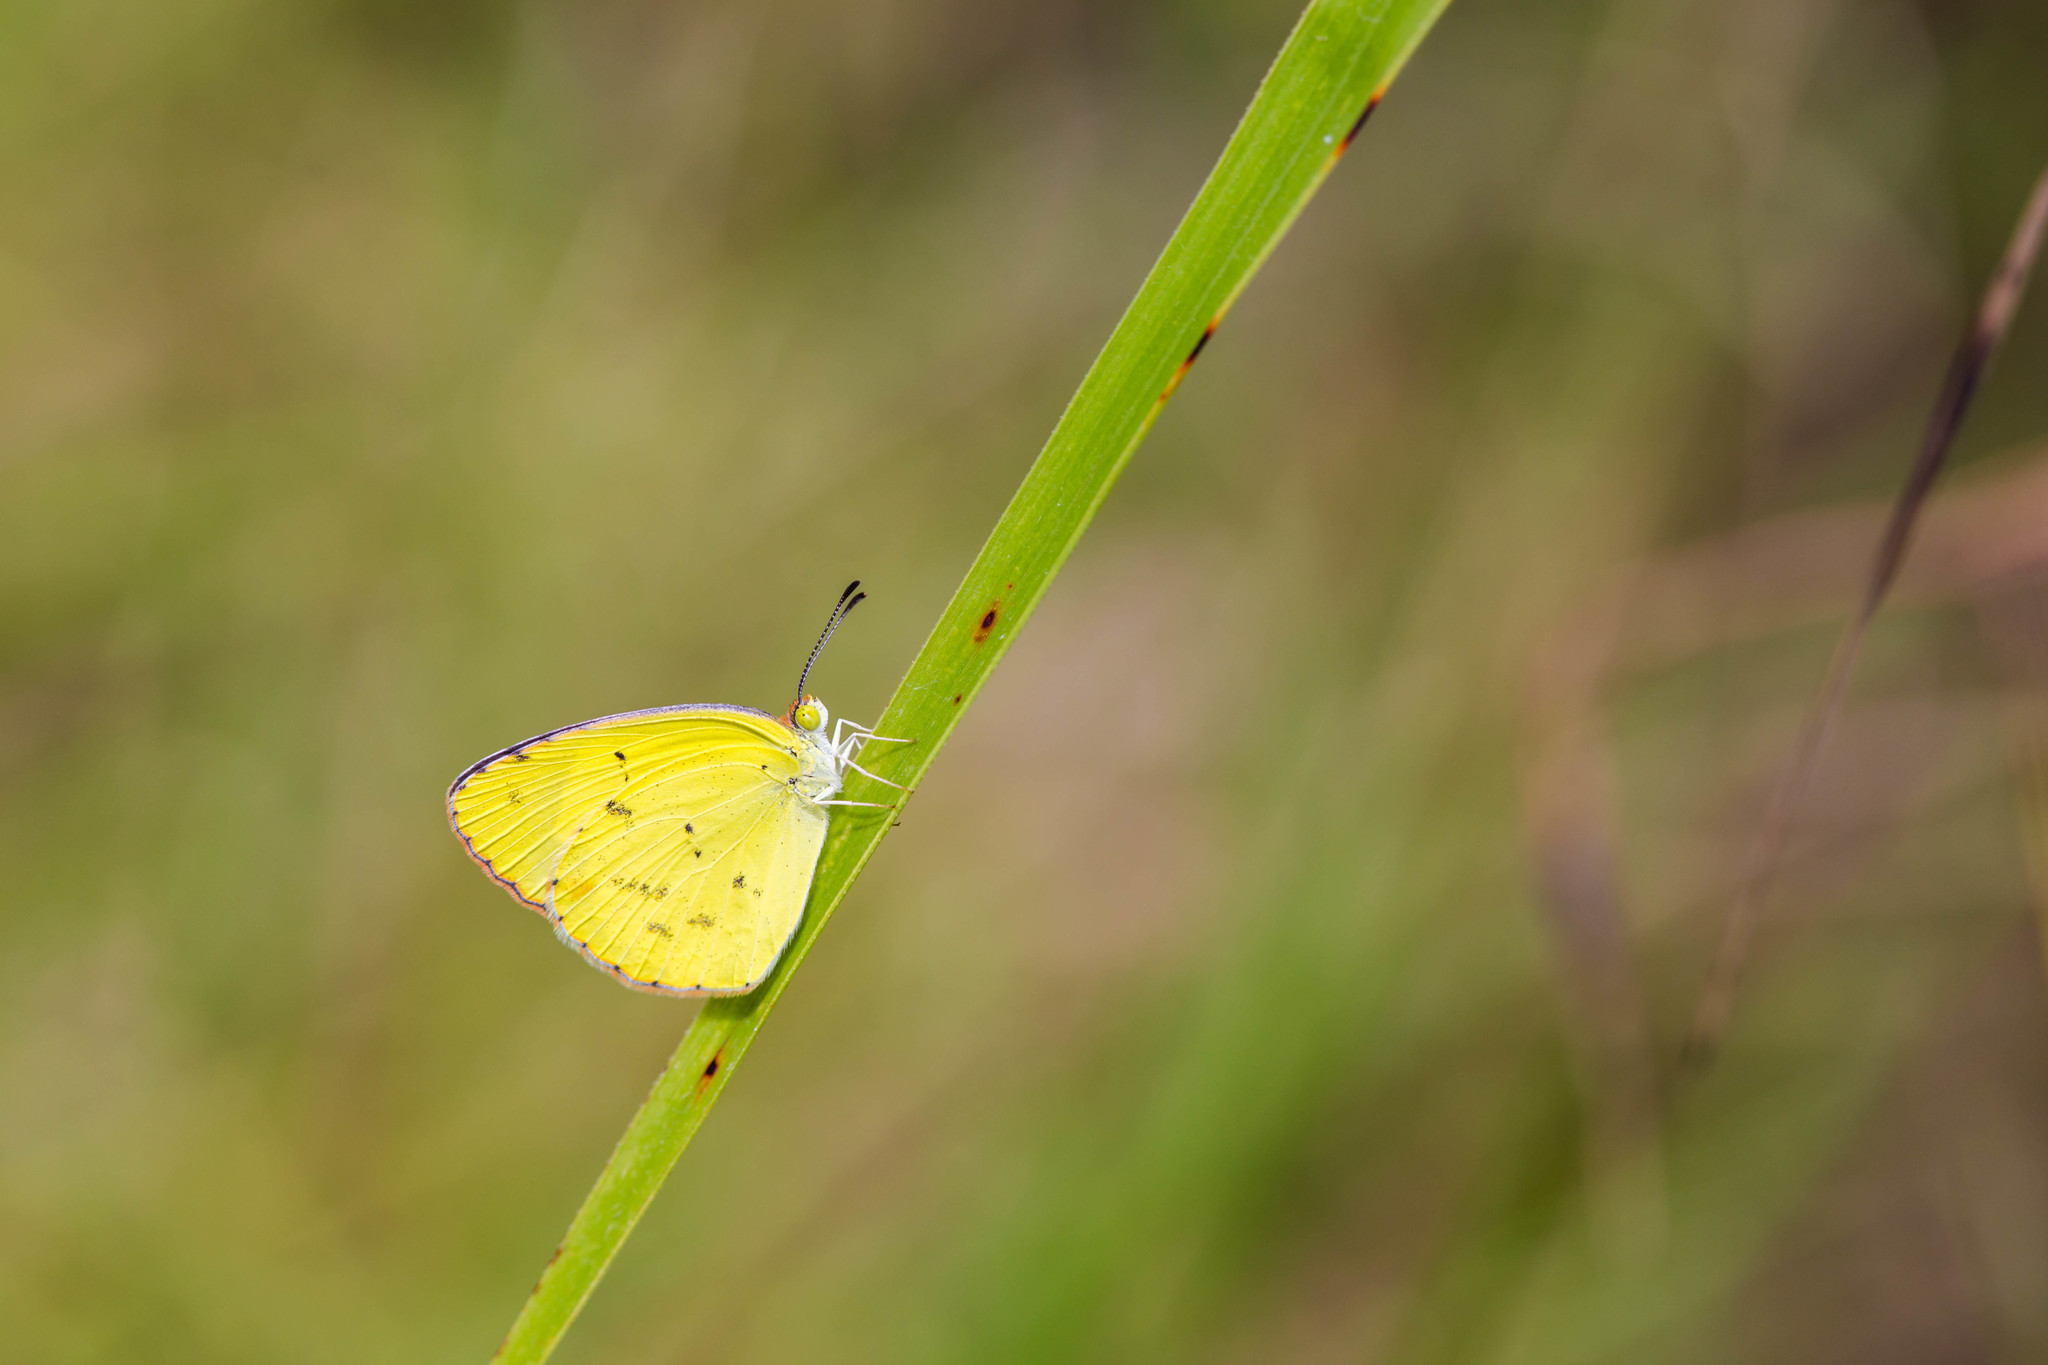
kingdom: Animalia
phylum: Arthropoda
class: Insecta
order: Lepidoptera
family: Pieridae
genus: Pyrisitia
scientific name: Pyrisitia lisa
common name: Little yellow
